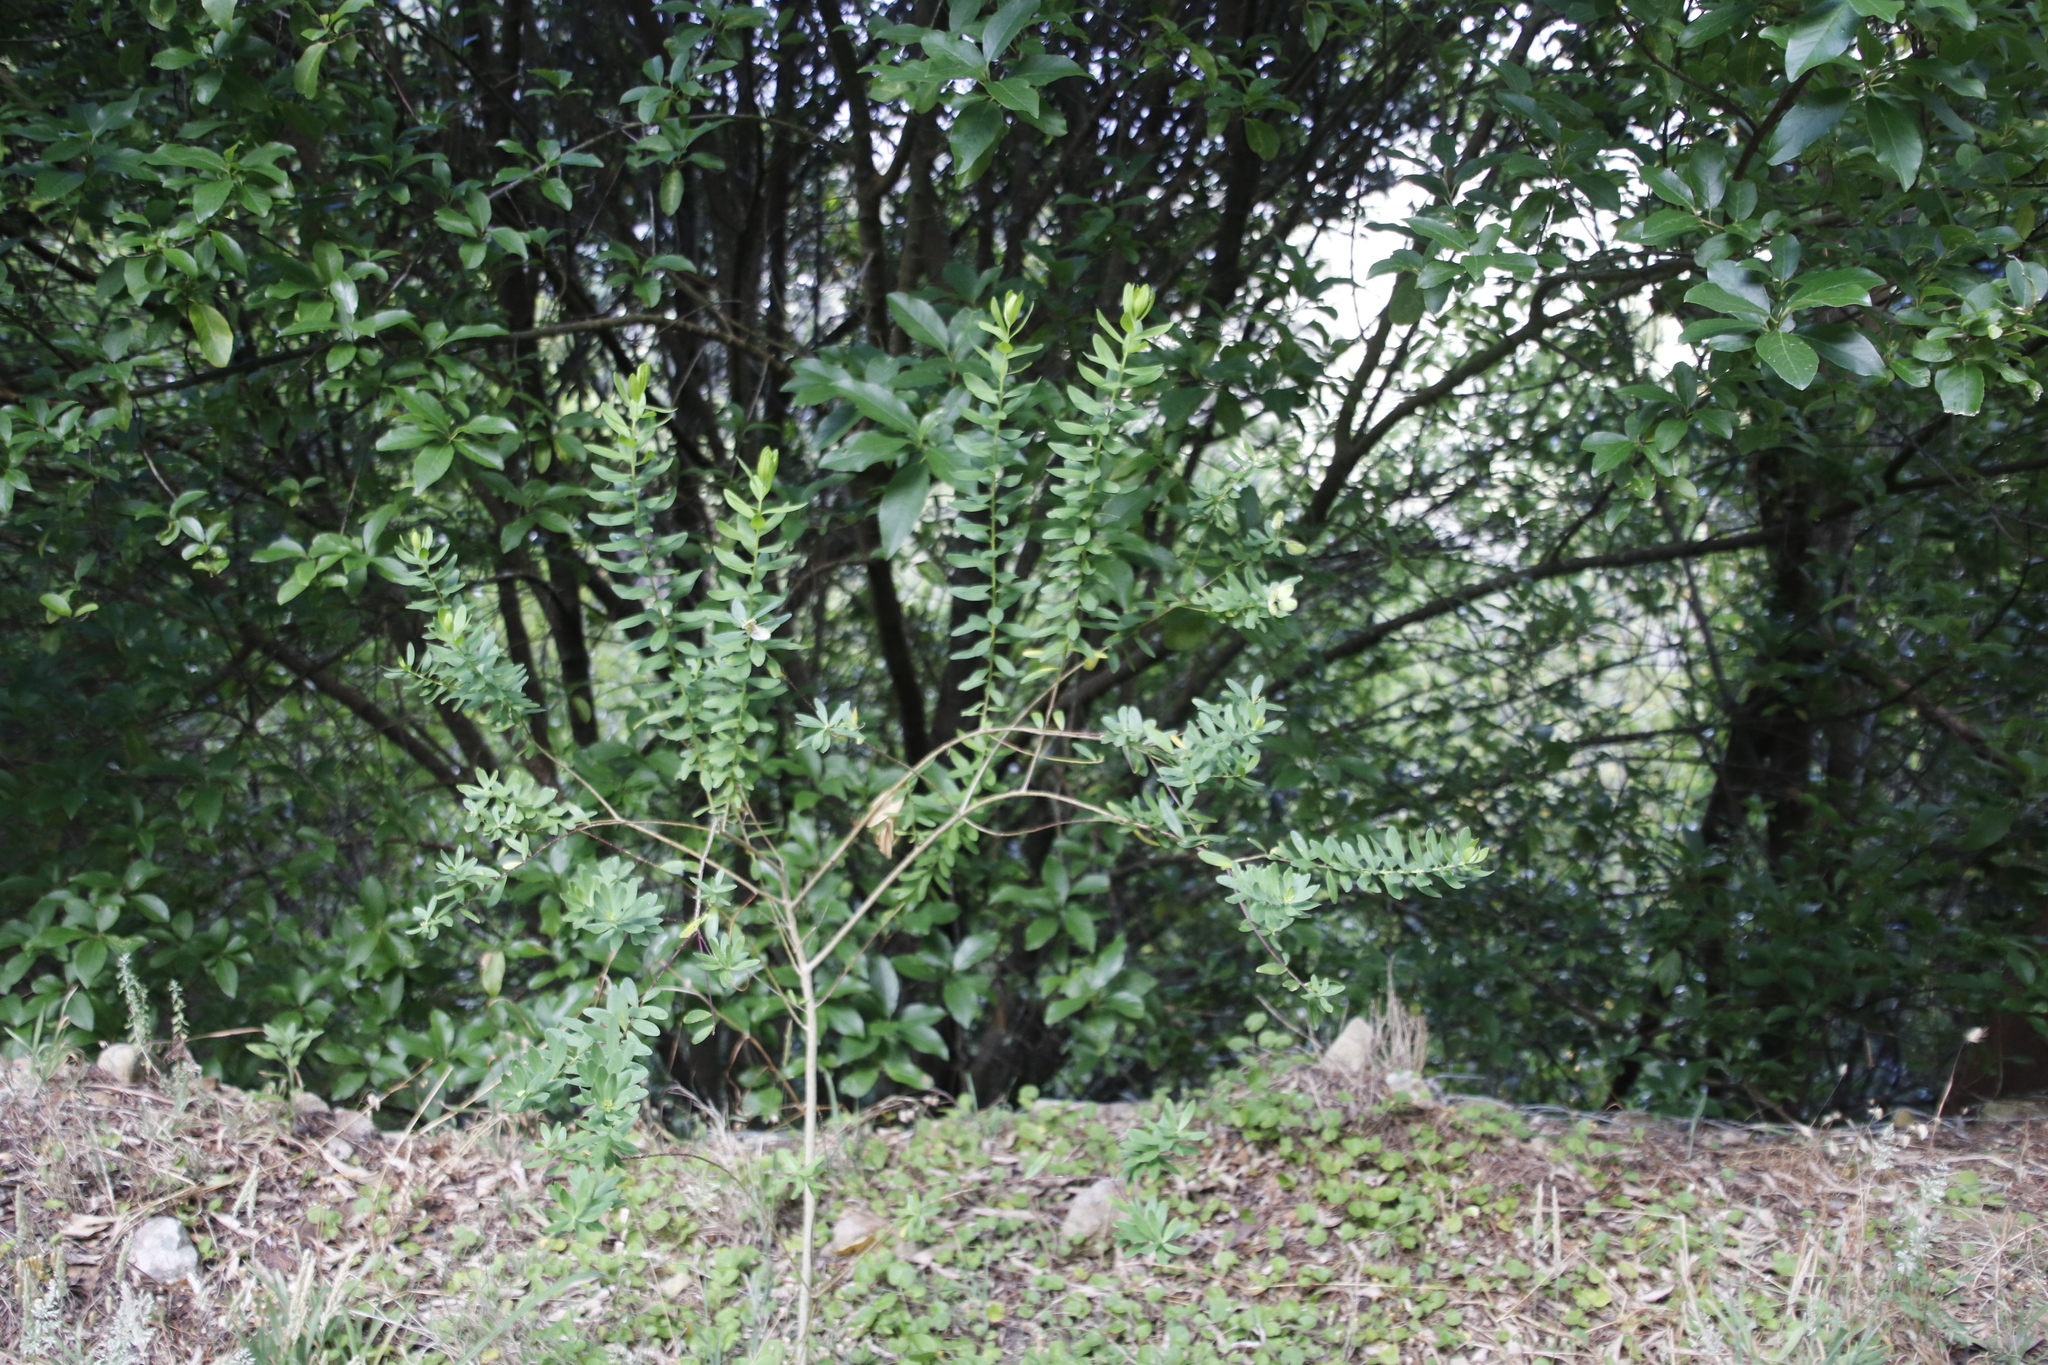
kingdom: Plantae
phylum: Tracheophyta
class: Magnoliopsida
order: Fabales
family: Polygalaceae
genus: Polygala
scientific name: Polygala myrtifolia
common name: Myrtle-leaf milkwort
